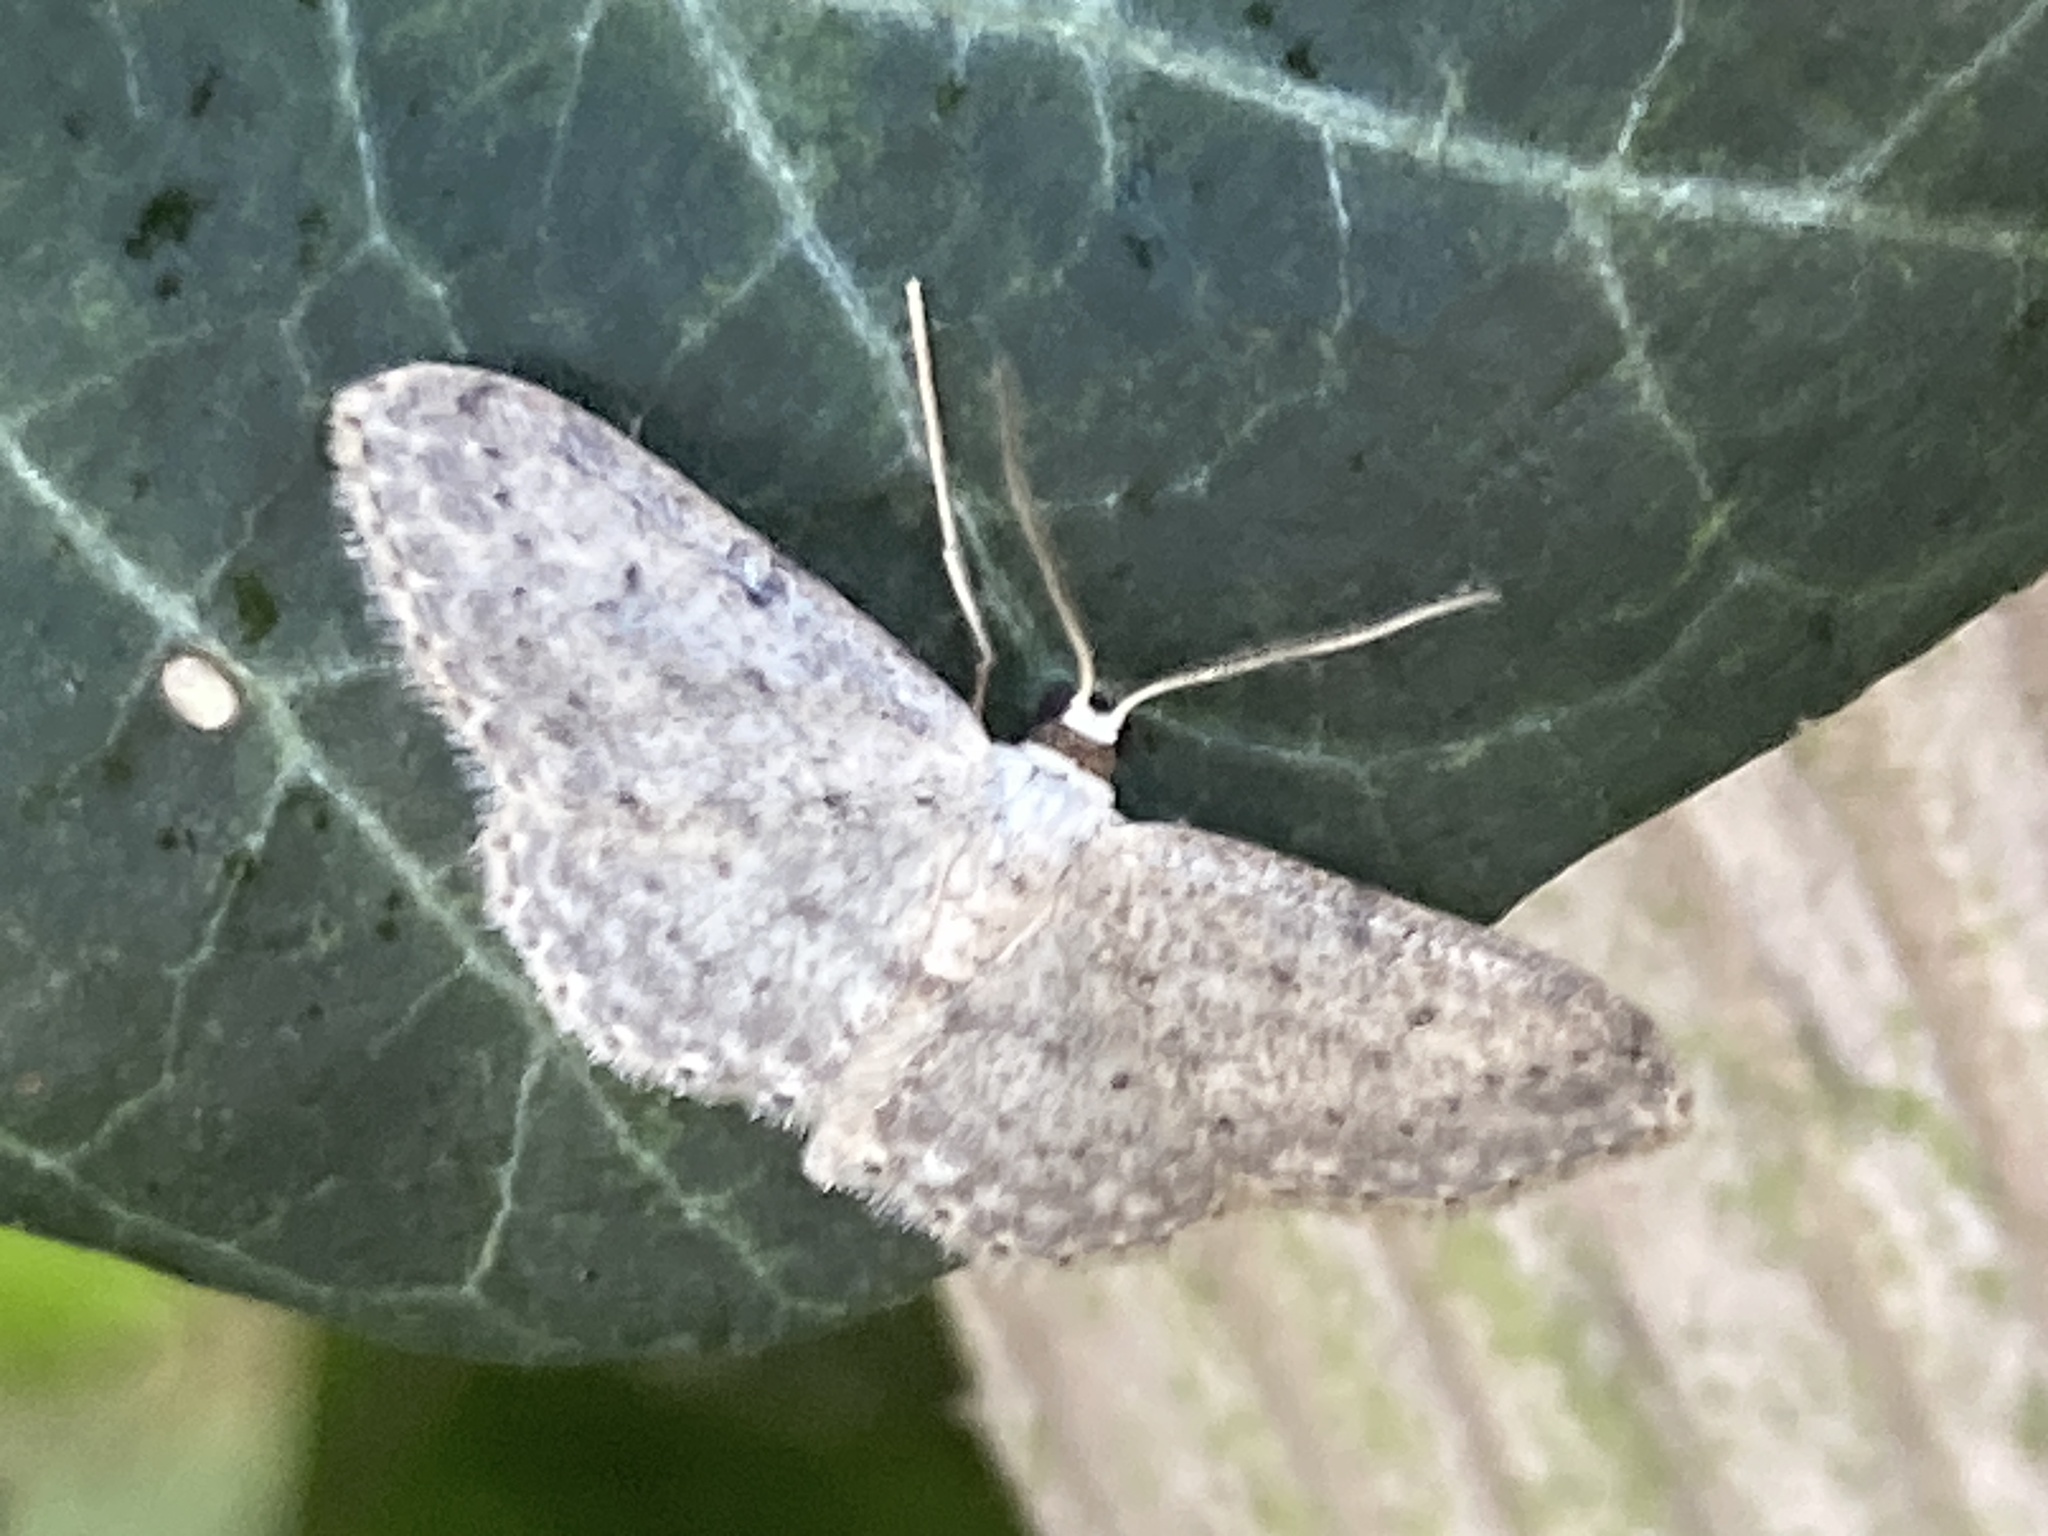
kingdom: Animalia
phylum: Arthropoda
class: Insecta
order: Lepidoptera
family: Geometridae
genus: Idaea
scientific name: Idaea seriata
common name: Small dusty wave
